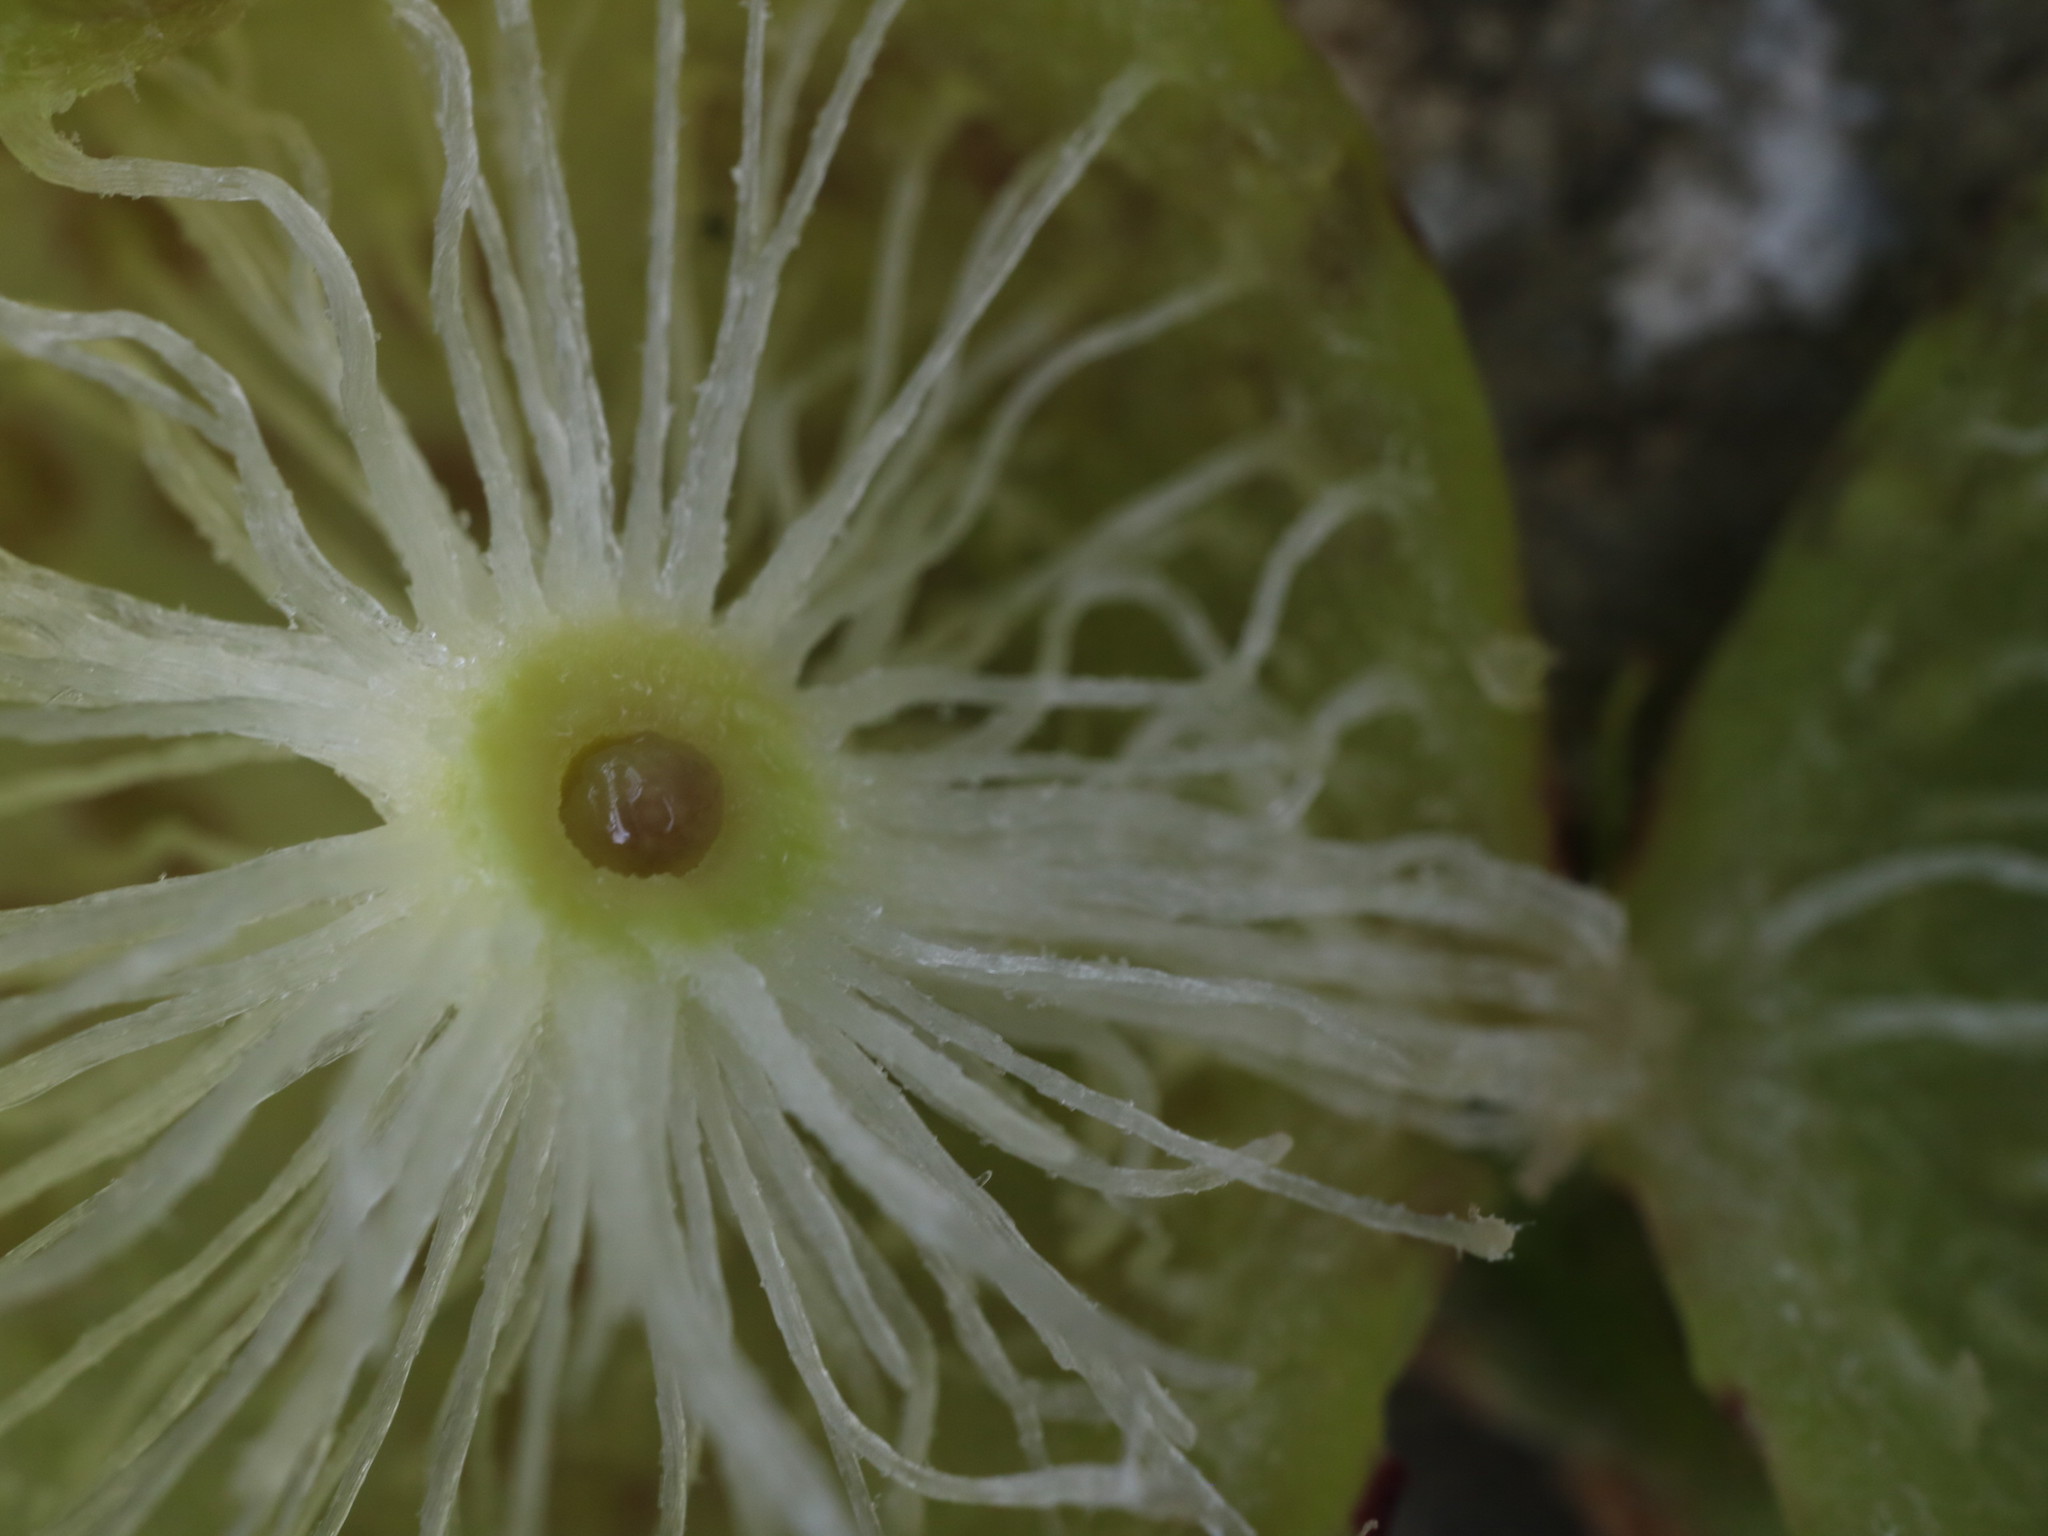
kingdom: Animalia
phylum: Arthropoda
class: Insecta
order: Hymenoptera
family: Cynipidae
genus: Amphibolips
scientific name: Amphibolips
